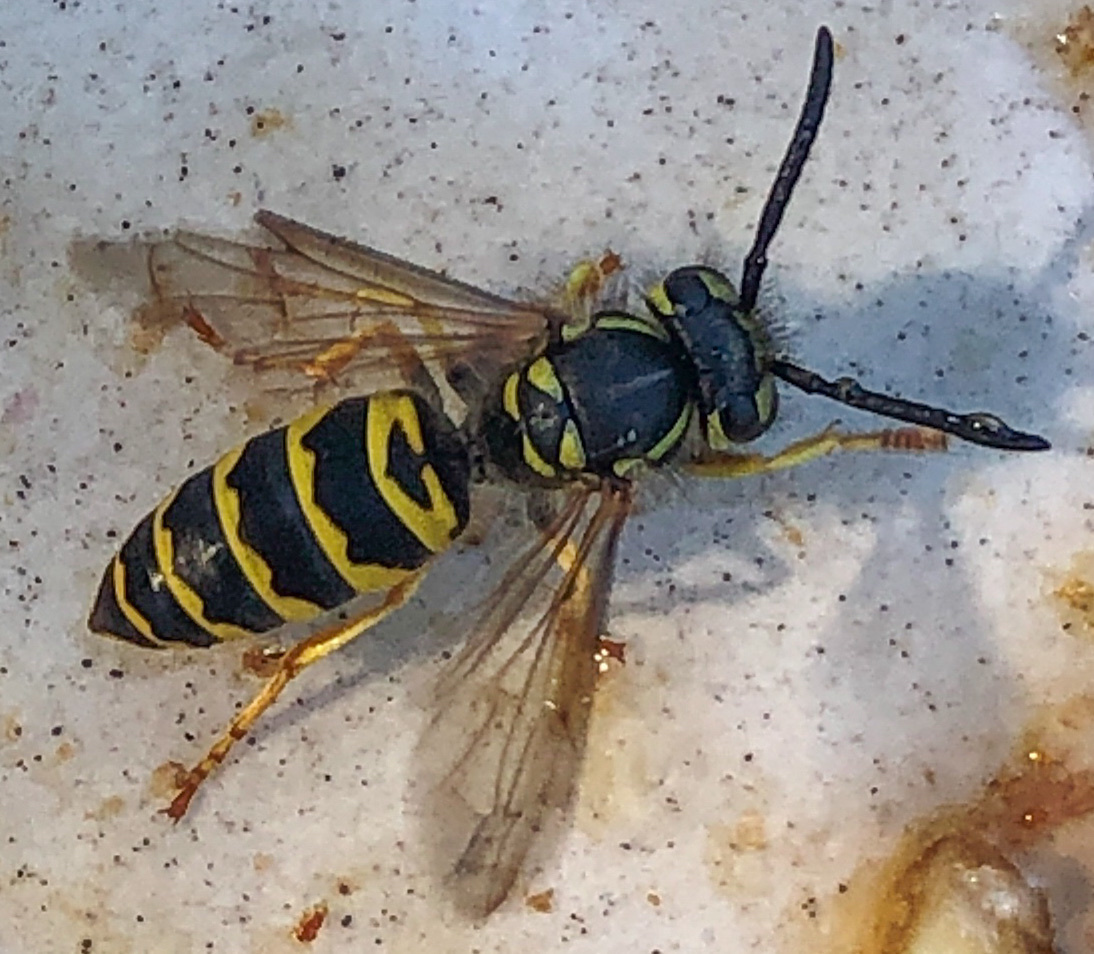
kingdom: Animalia
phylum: Arthropoda
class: Insecta
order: Hymenoptera
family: Vespidae
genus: Vespula
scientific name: Vespula maculifrons
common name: Eastern yellowjacket
